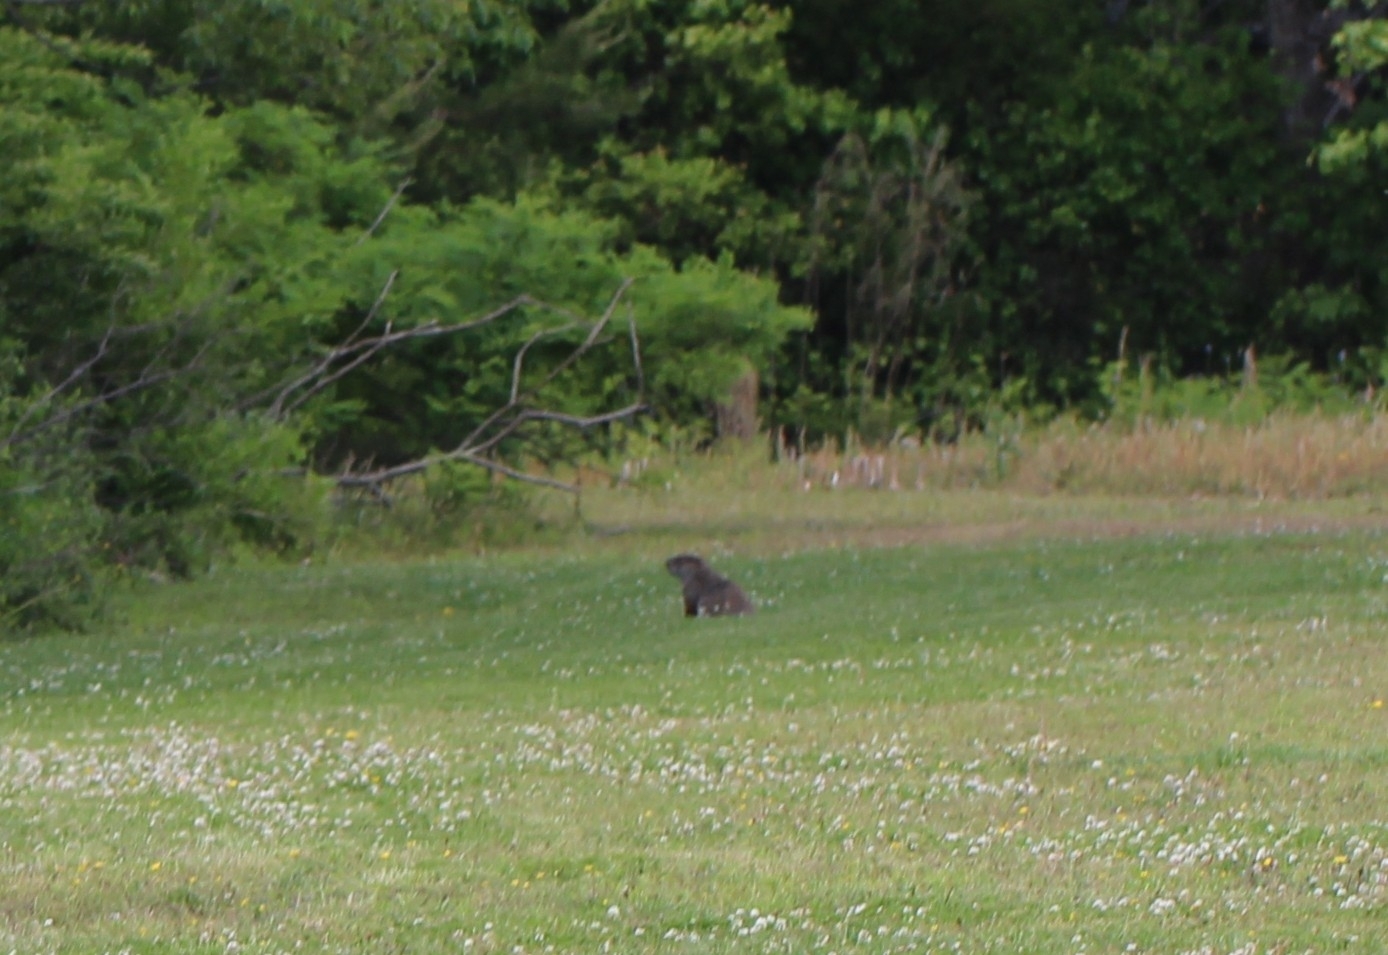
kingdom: Animalia
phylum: Chordata
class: Mammalia
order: Rodentia
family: Sciuridae
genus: Marmota
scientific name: Marmota monax
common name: Groundhog
